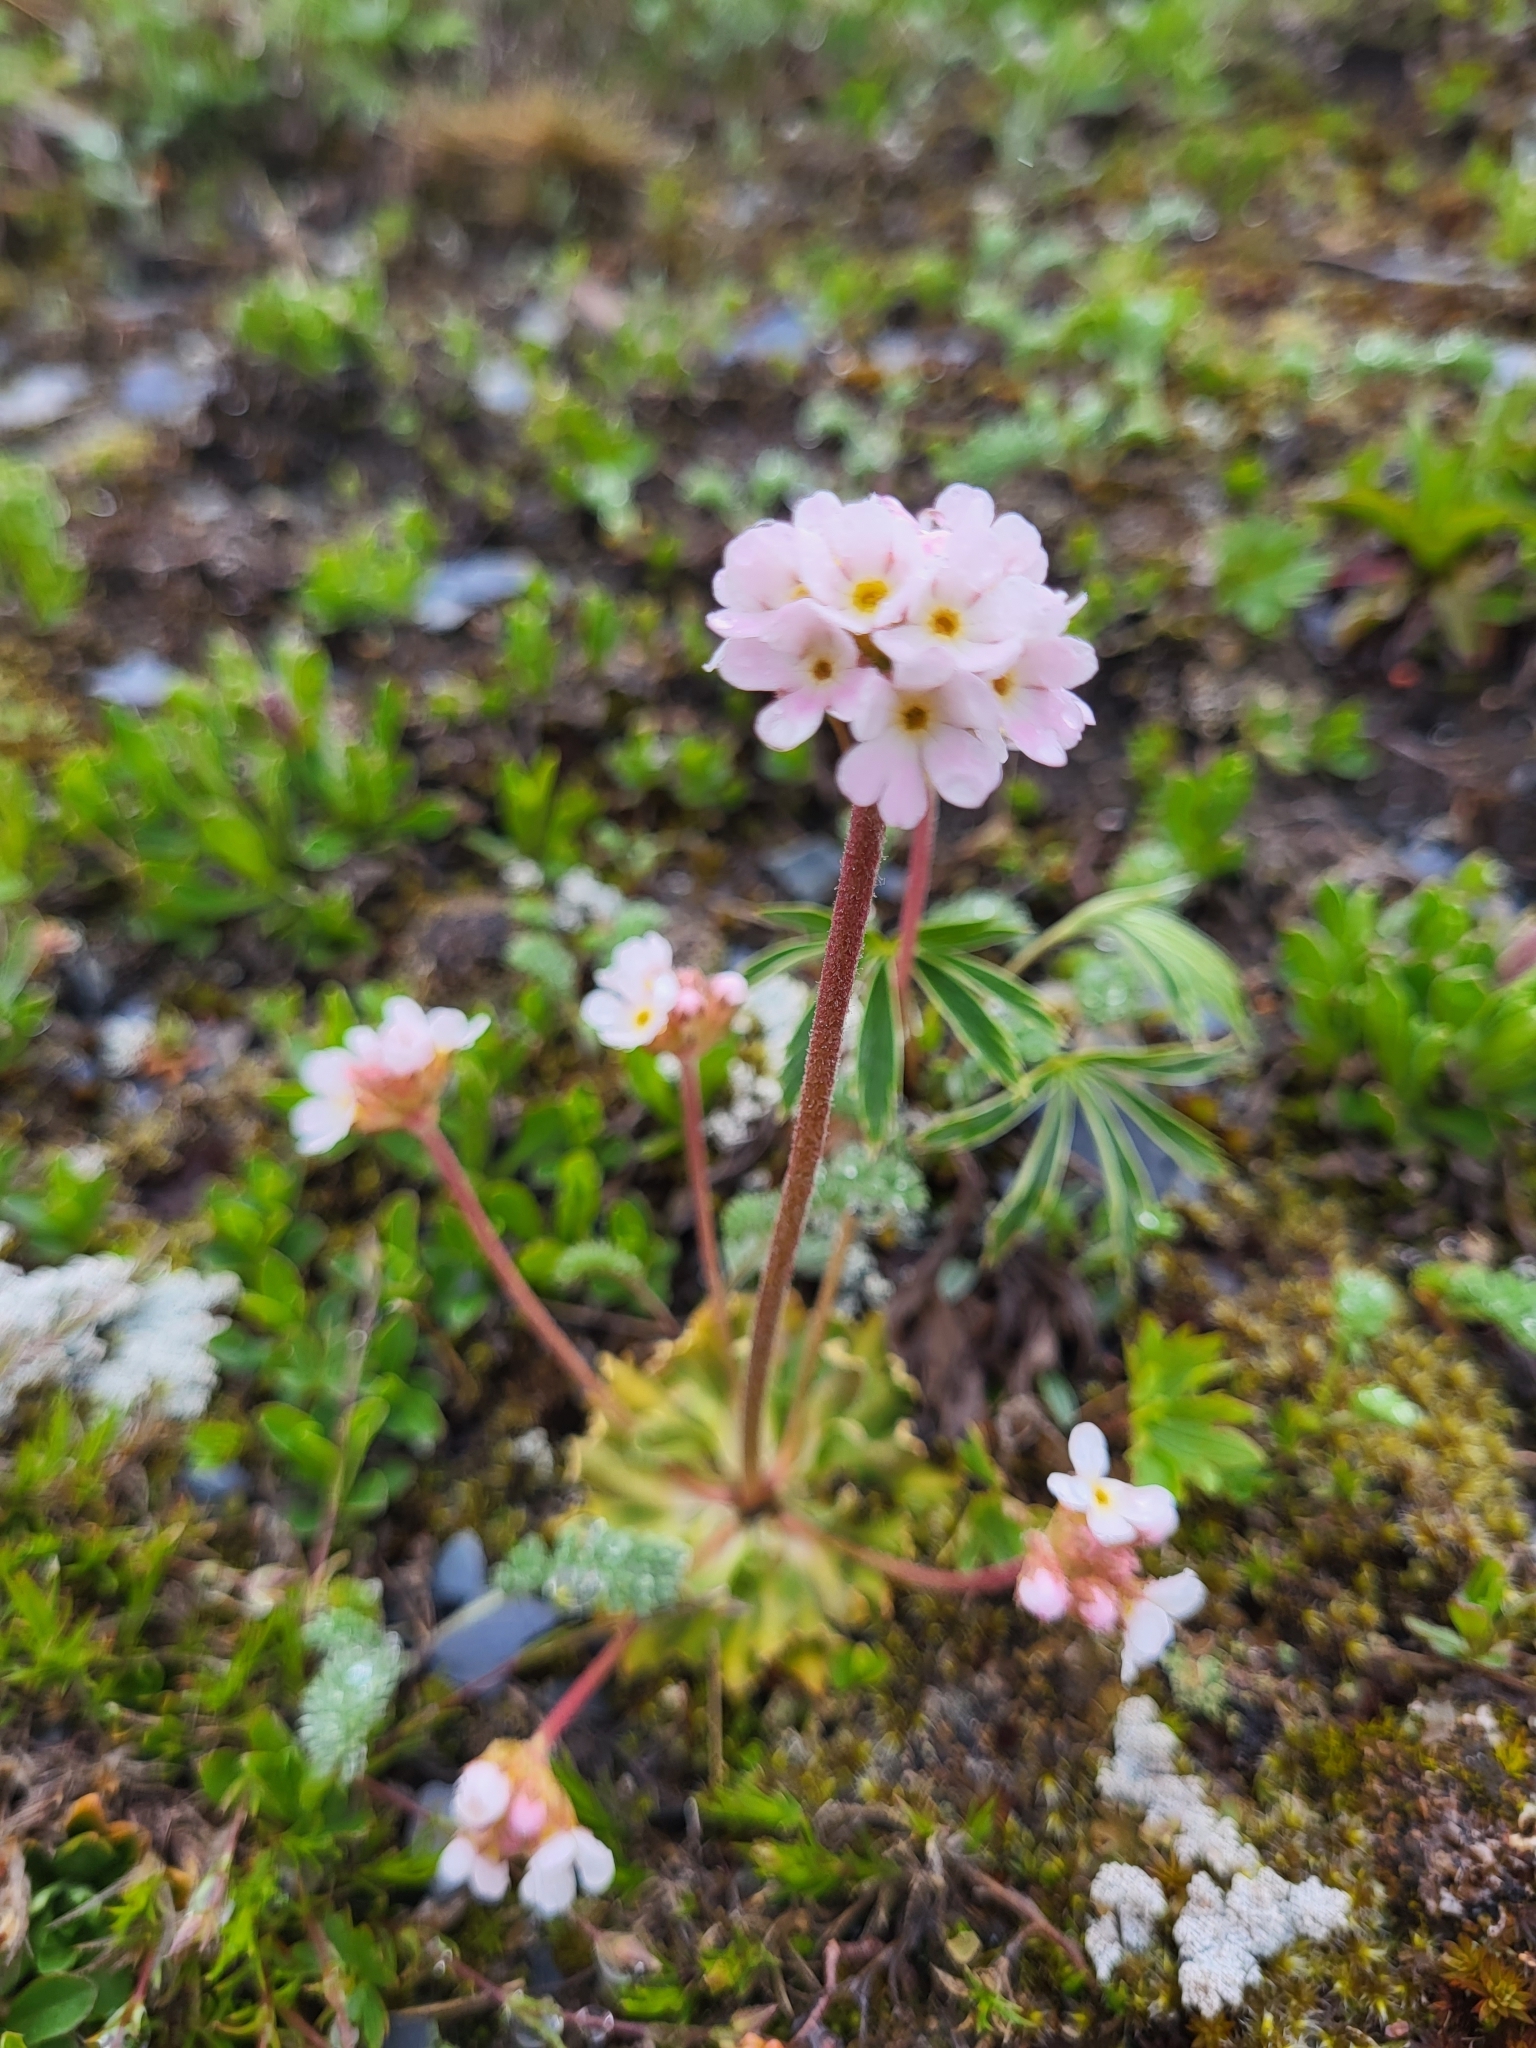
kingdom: Plantae
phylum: Tracheophyta
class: Magnoliopsida
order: Ericales
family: Primulaceae
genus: Androsace
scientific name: Androsace albana
